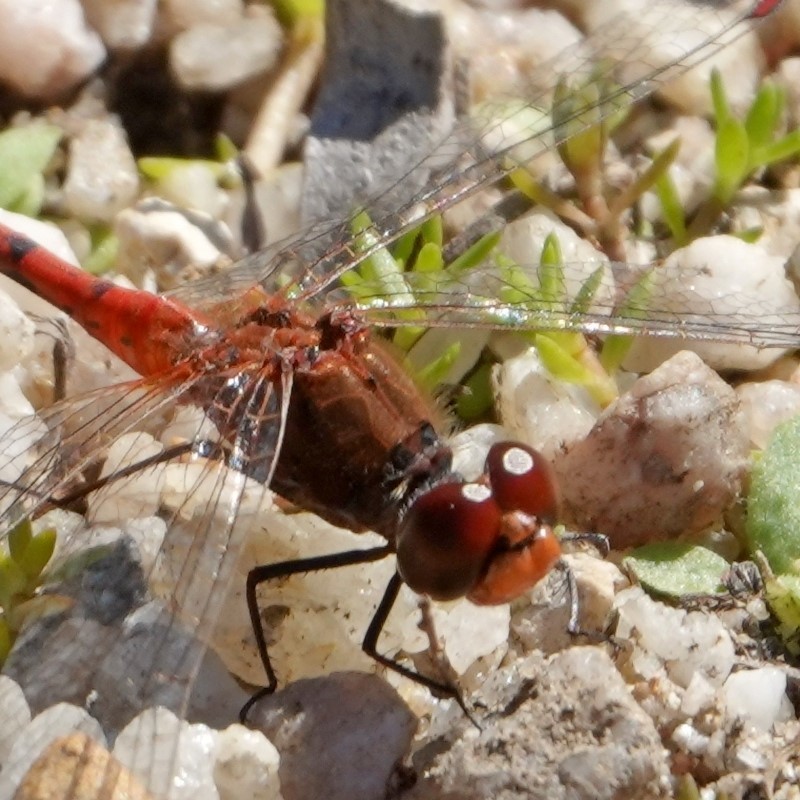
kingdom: Animalia
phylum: Arthropoda
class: Insecta
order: Odonata
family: Libellulidae
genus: Diplacodes
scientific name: Diplacodes bipunctata
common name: Red percher dragonfly
